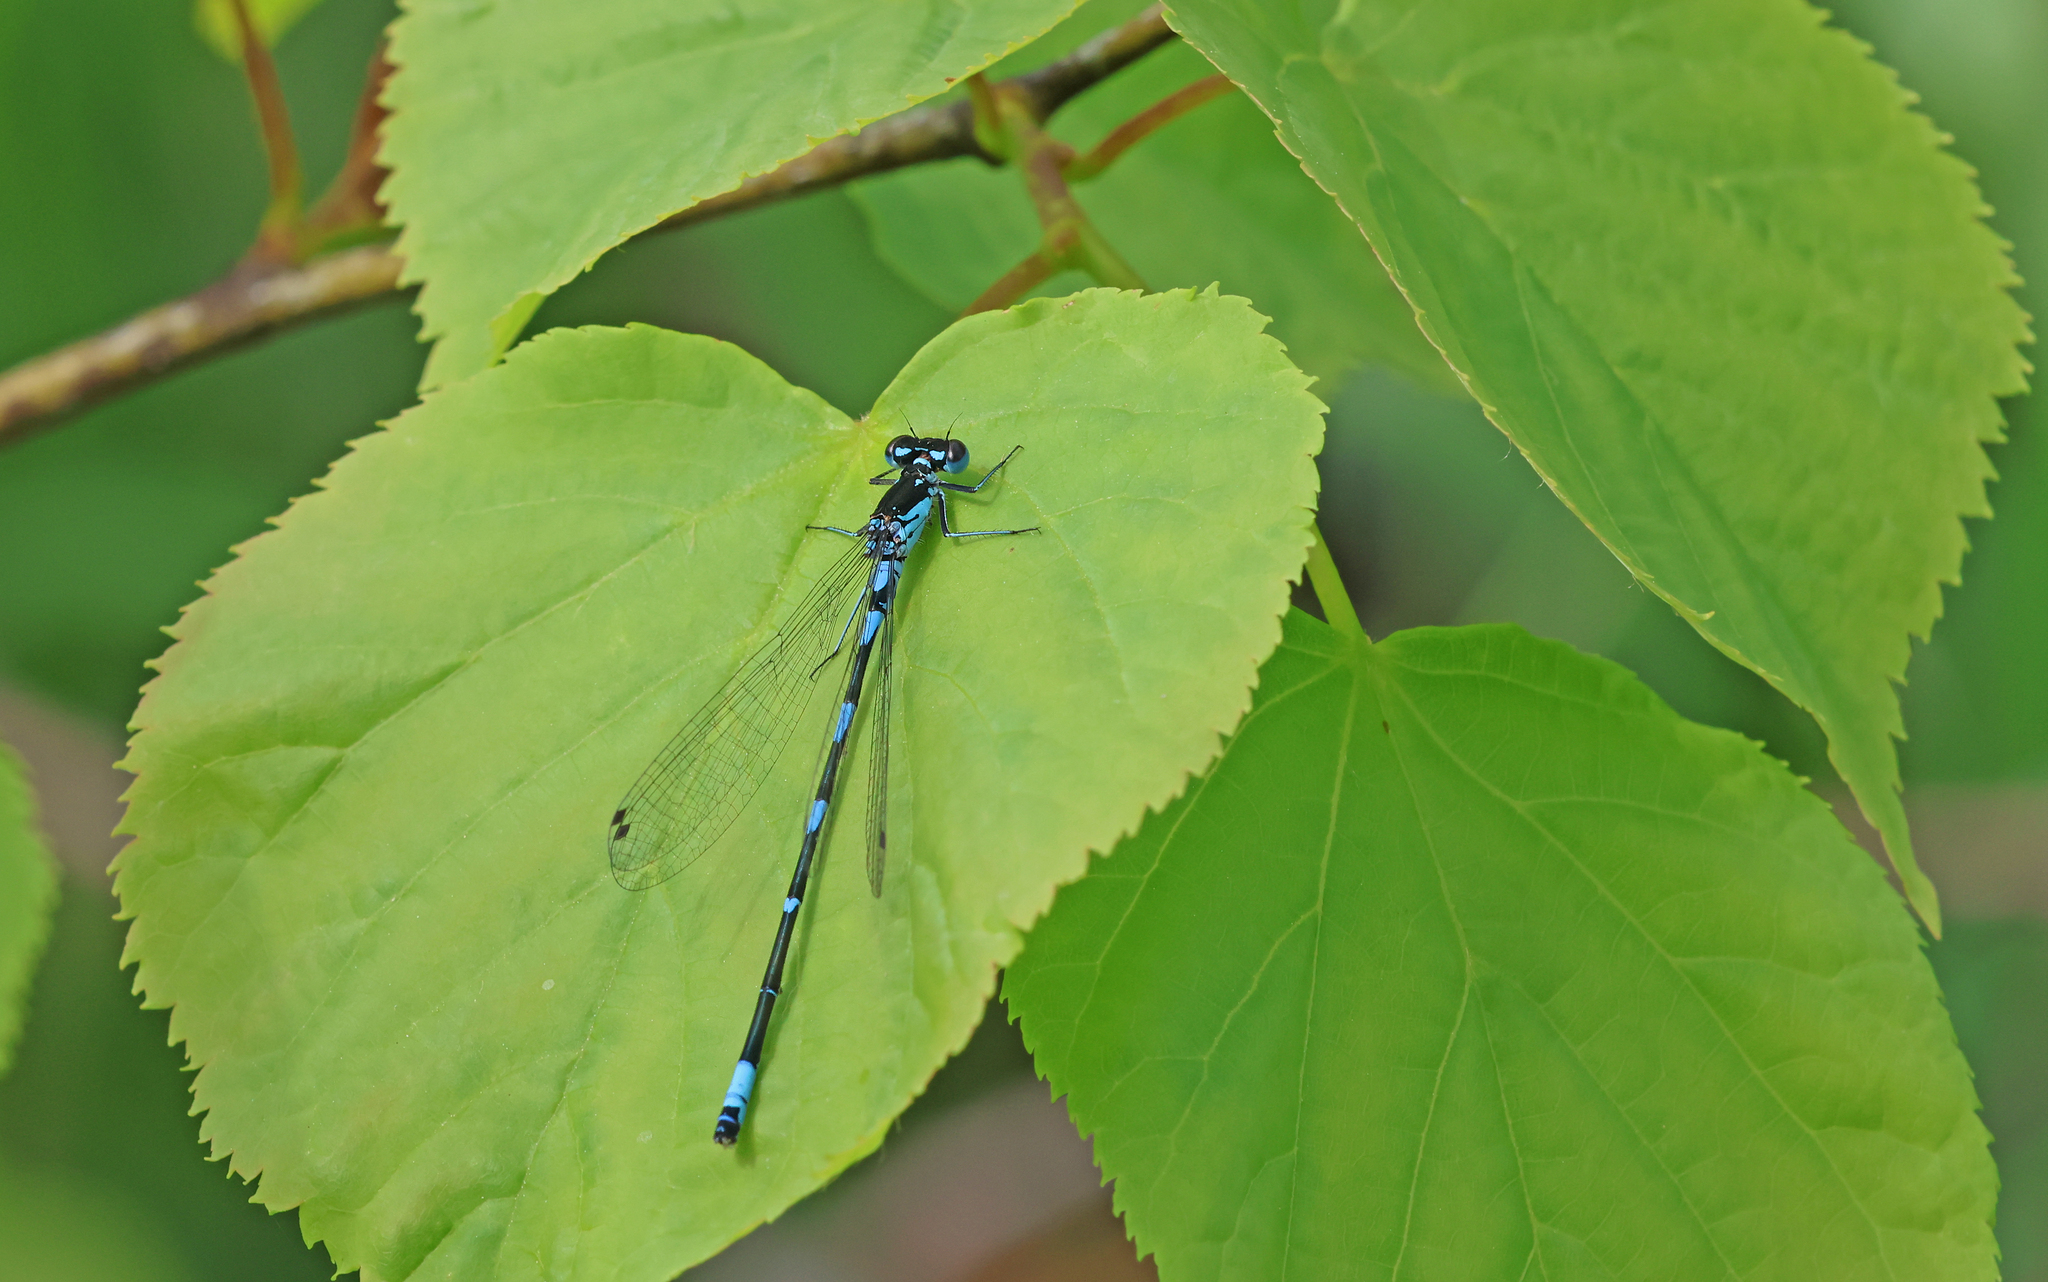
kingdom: Animalia
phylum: Arthropoda
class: Insecta
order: Odonata
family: Coenagrionidae
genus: Coenagrion
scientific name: Coenagrion pulchellum
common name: Variable bluet
